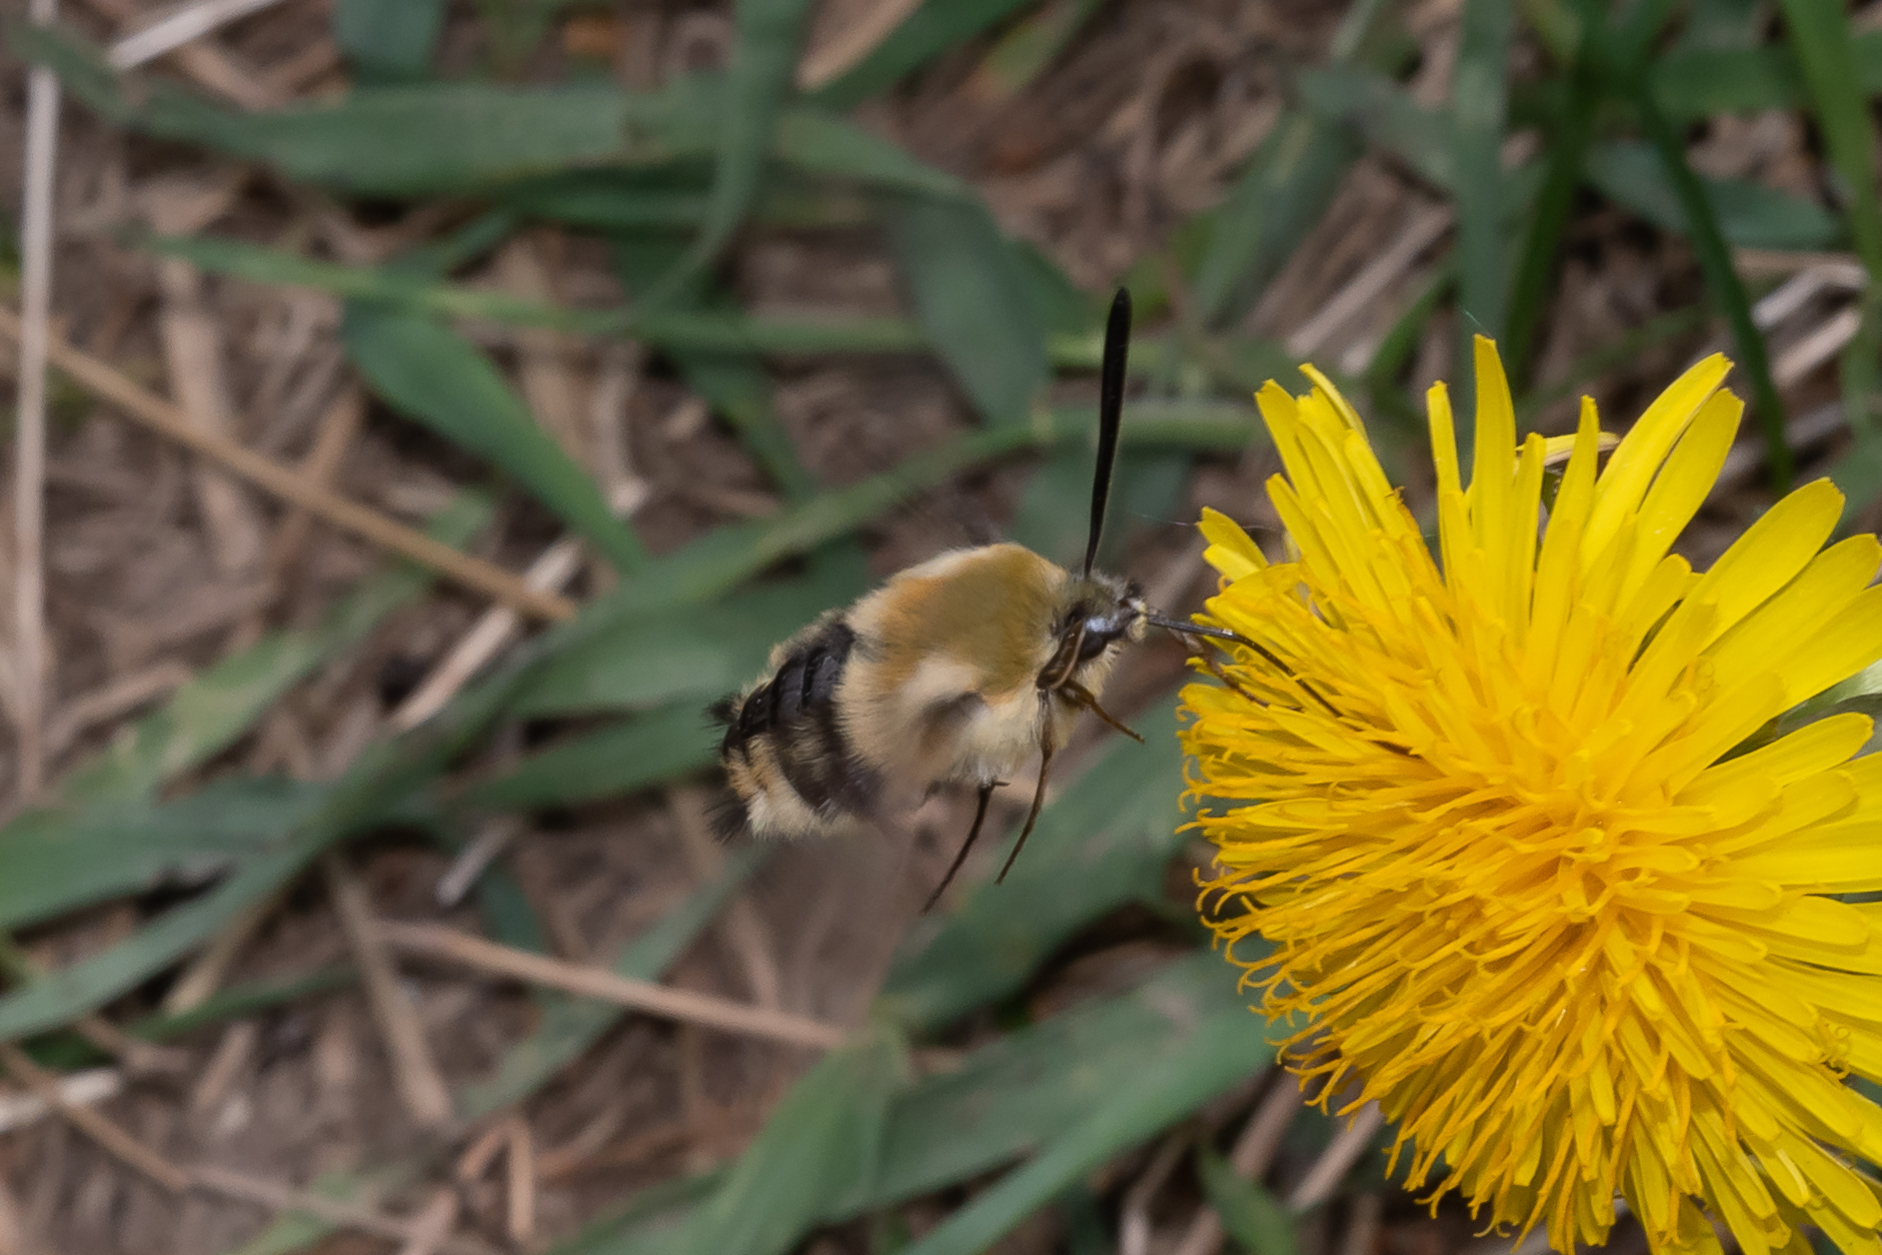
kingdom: Animalia
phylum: Arthropoda
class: Insecta
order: Lepidoptera
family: Sphingidae
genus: Hemaris
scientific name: Hemaris tityus
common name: Narrow-bordered bee hawk-moth
